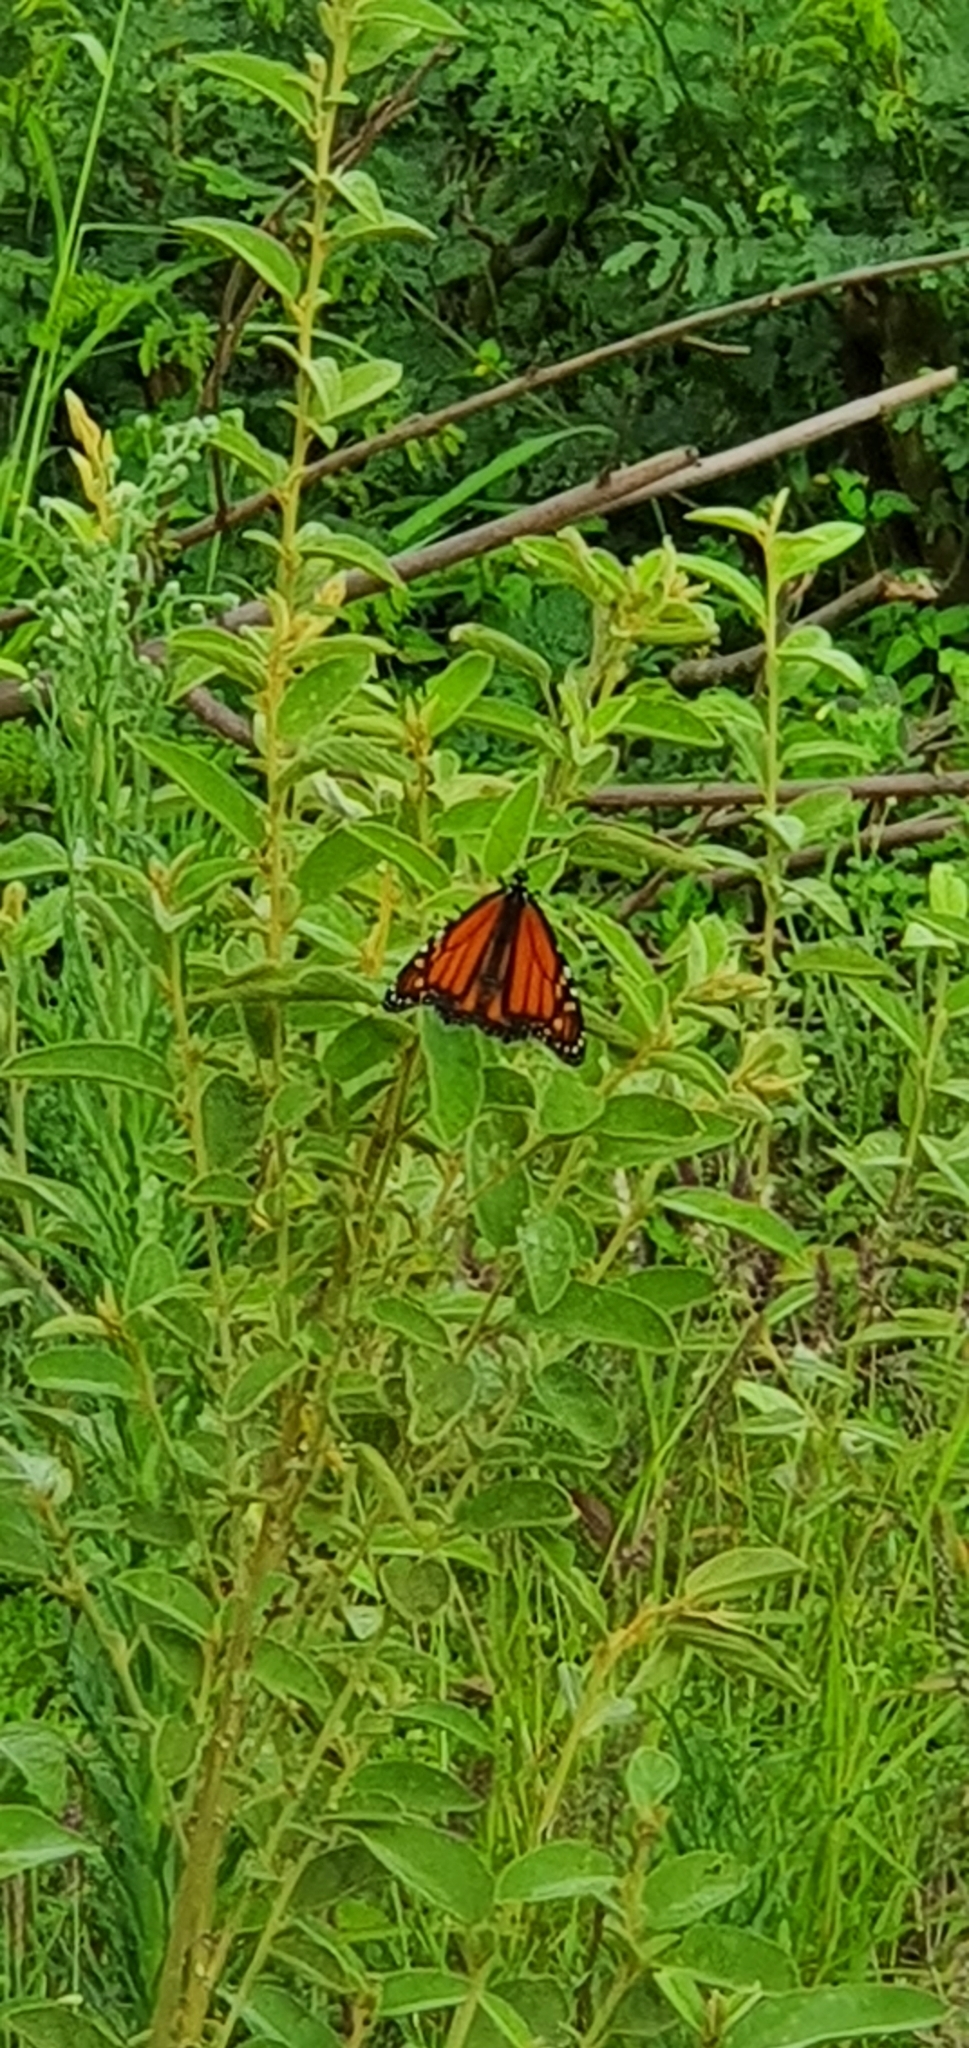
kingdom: Animalia
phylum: Arthropoda
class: Insecta
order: Lepidoptera
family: Nymphalidae
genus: Danaus
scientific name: Danaus plexippus
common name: Monarch
